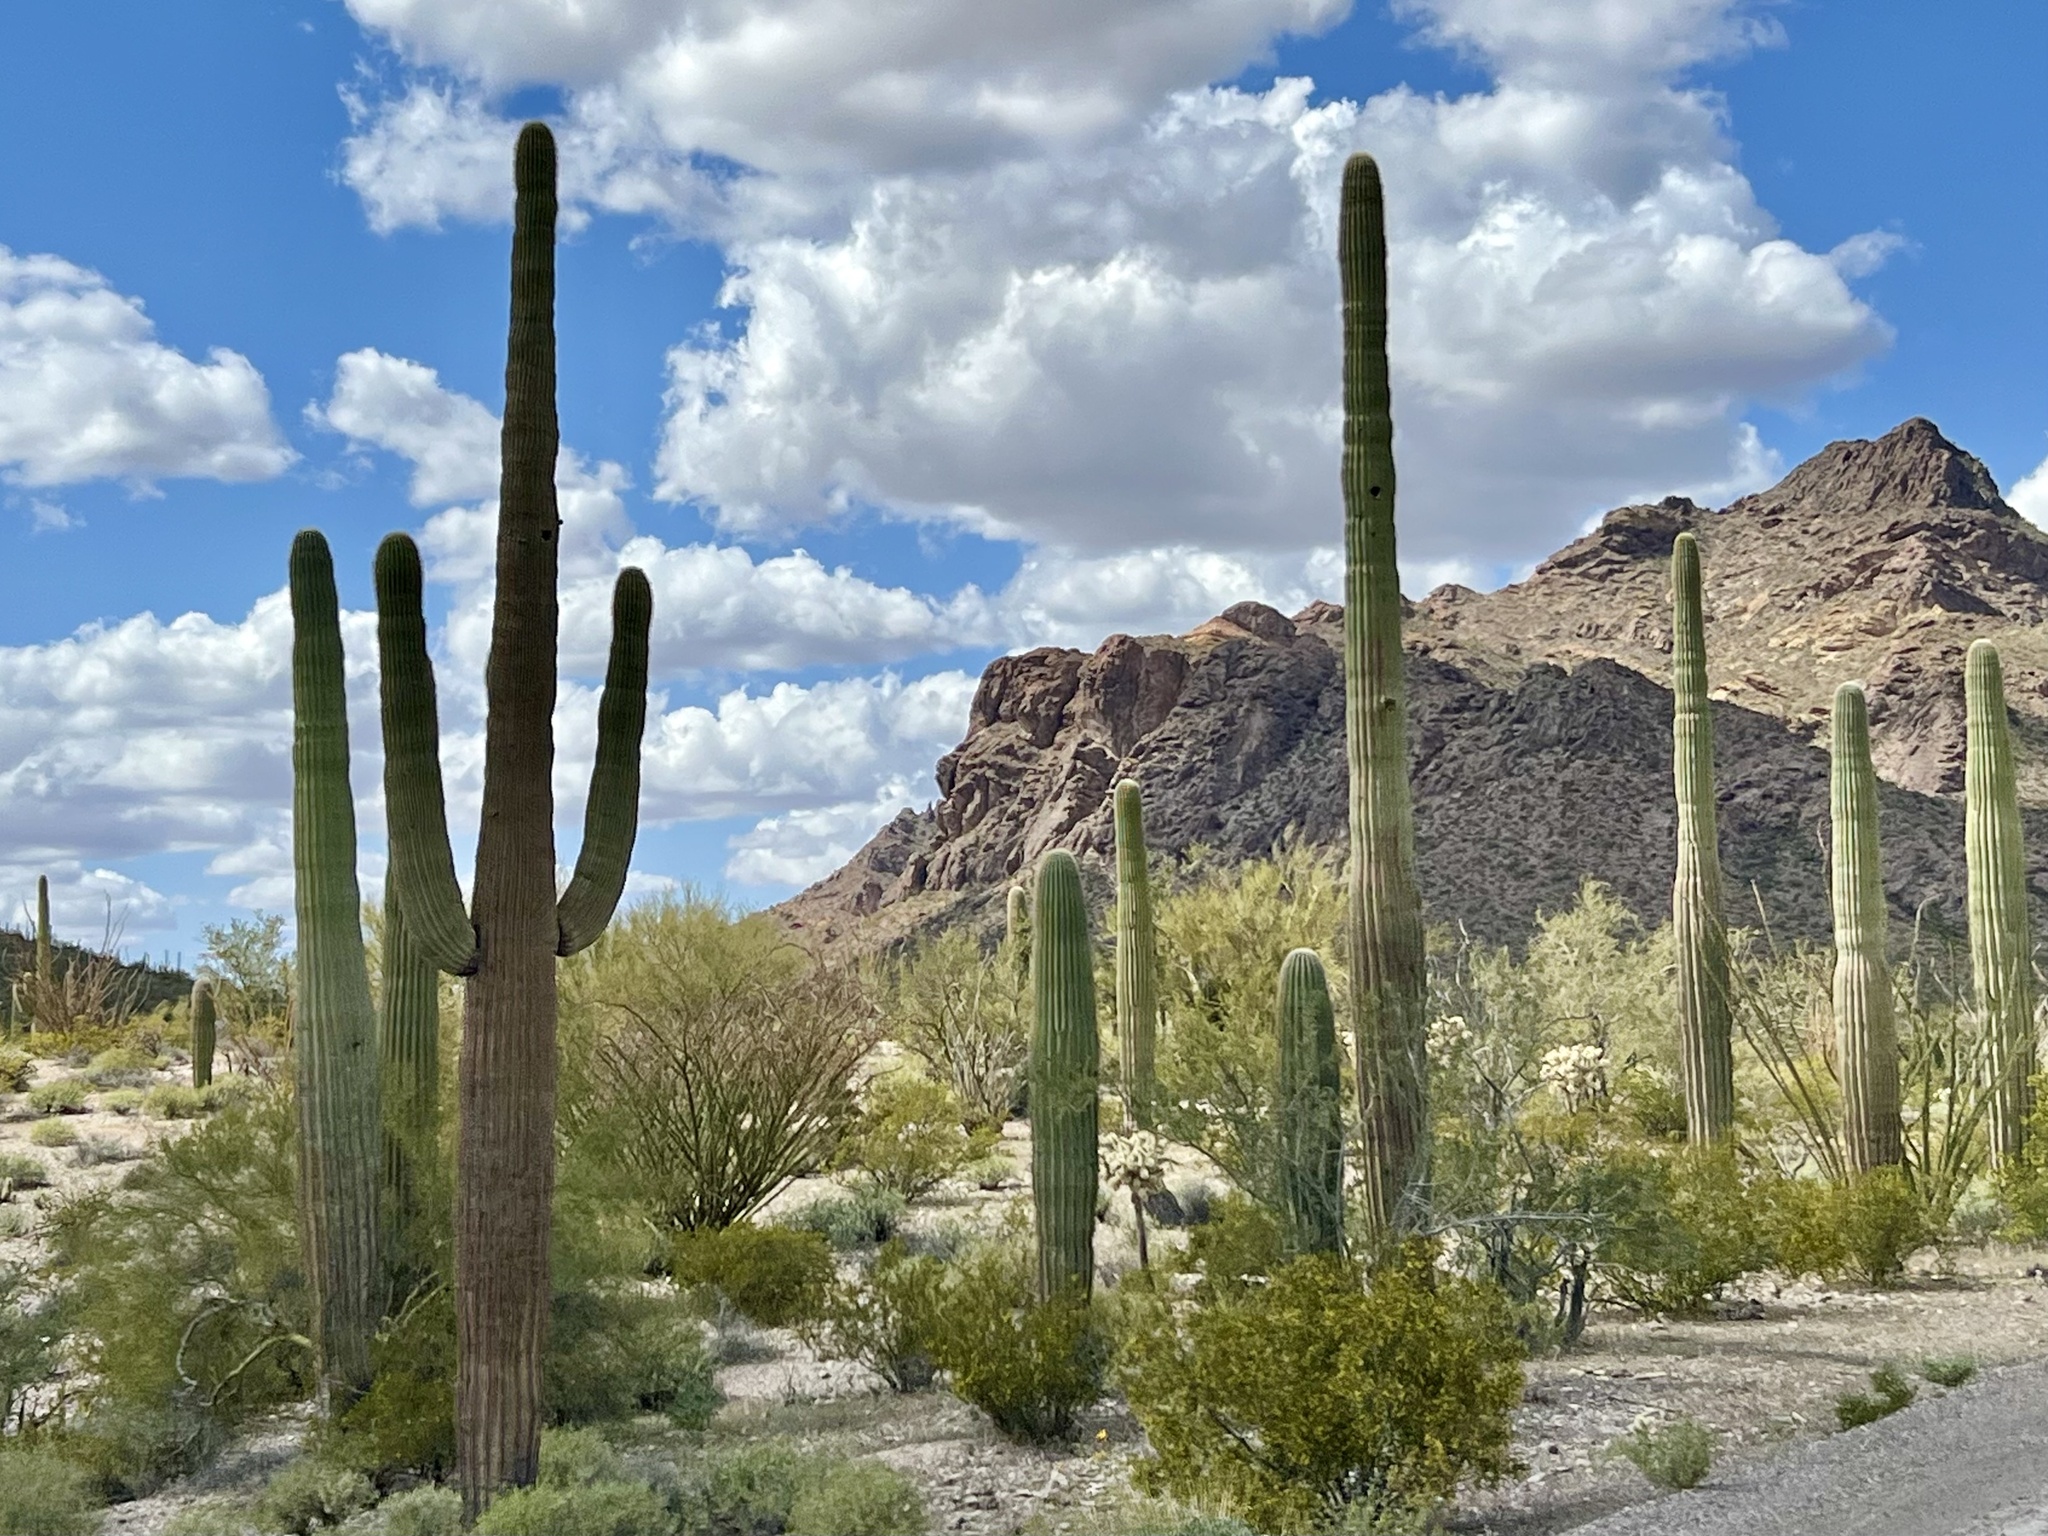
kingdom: Plantae
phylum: Tracheophyta
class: Magnoliopsida
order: Caryophyllales
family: Cactaceae
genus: Carnegiea
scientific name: Carnegiea gigantea
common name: Saguaro
